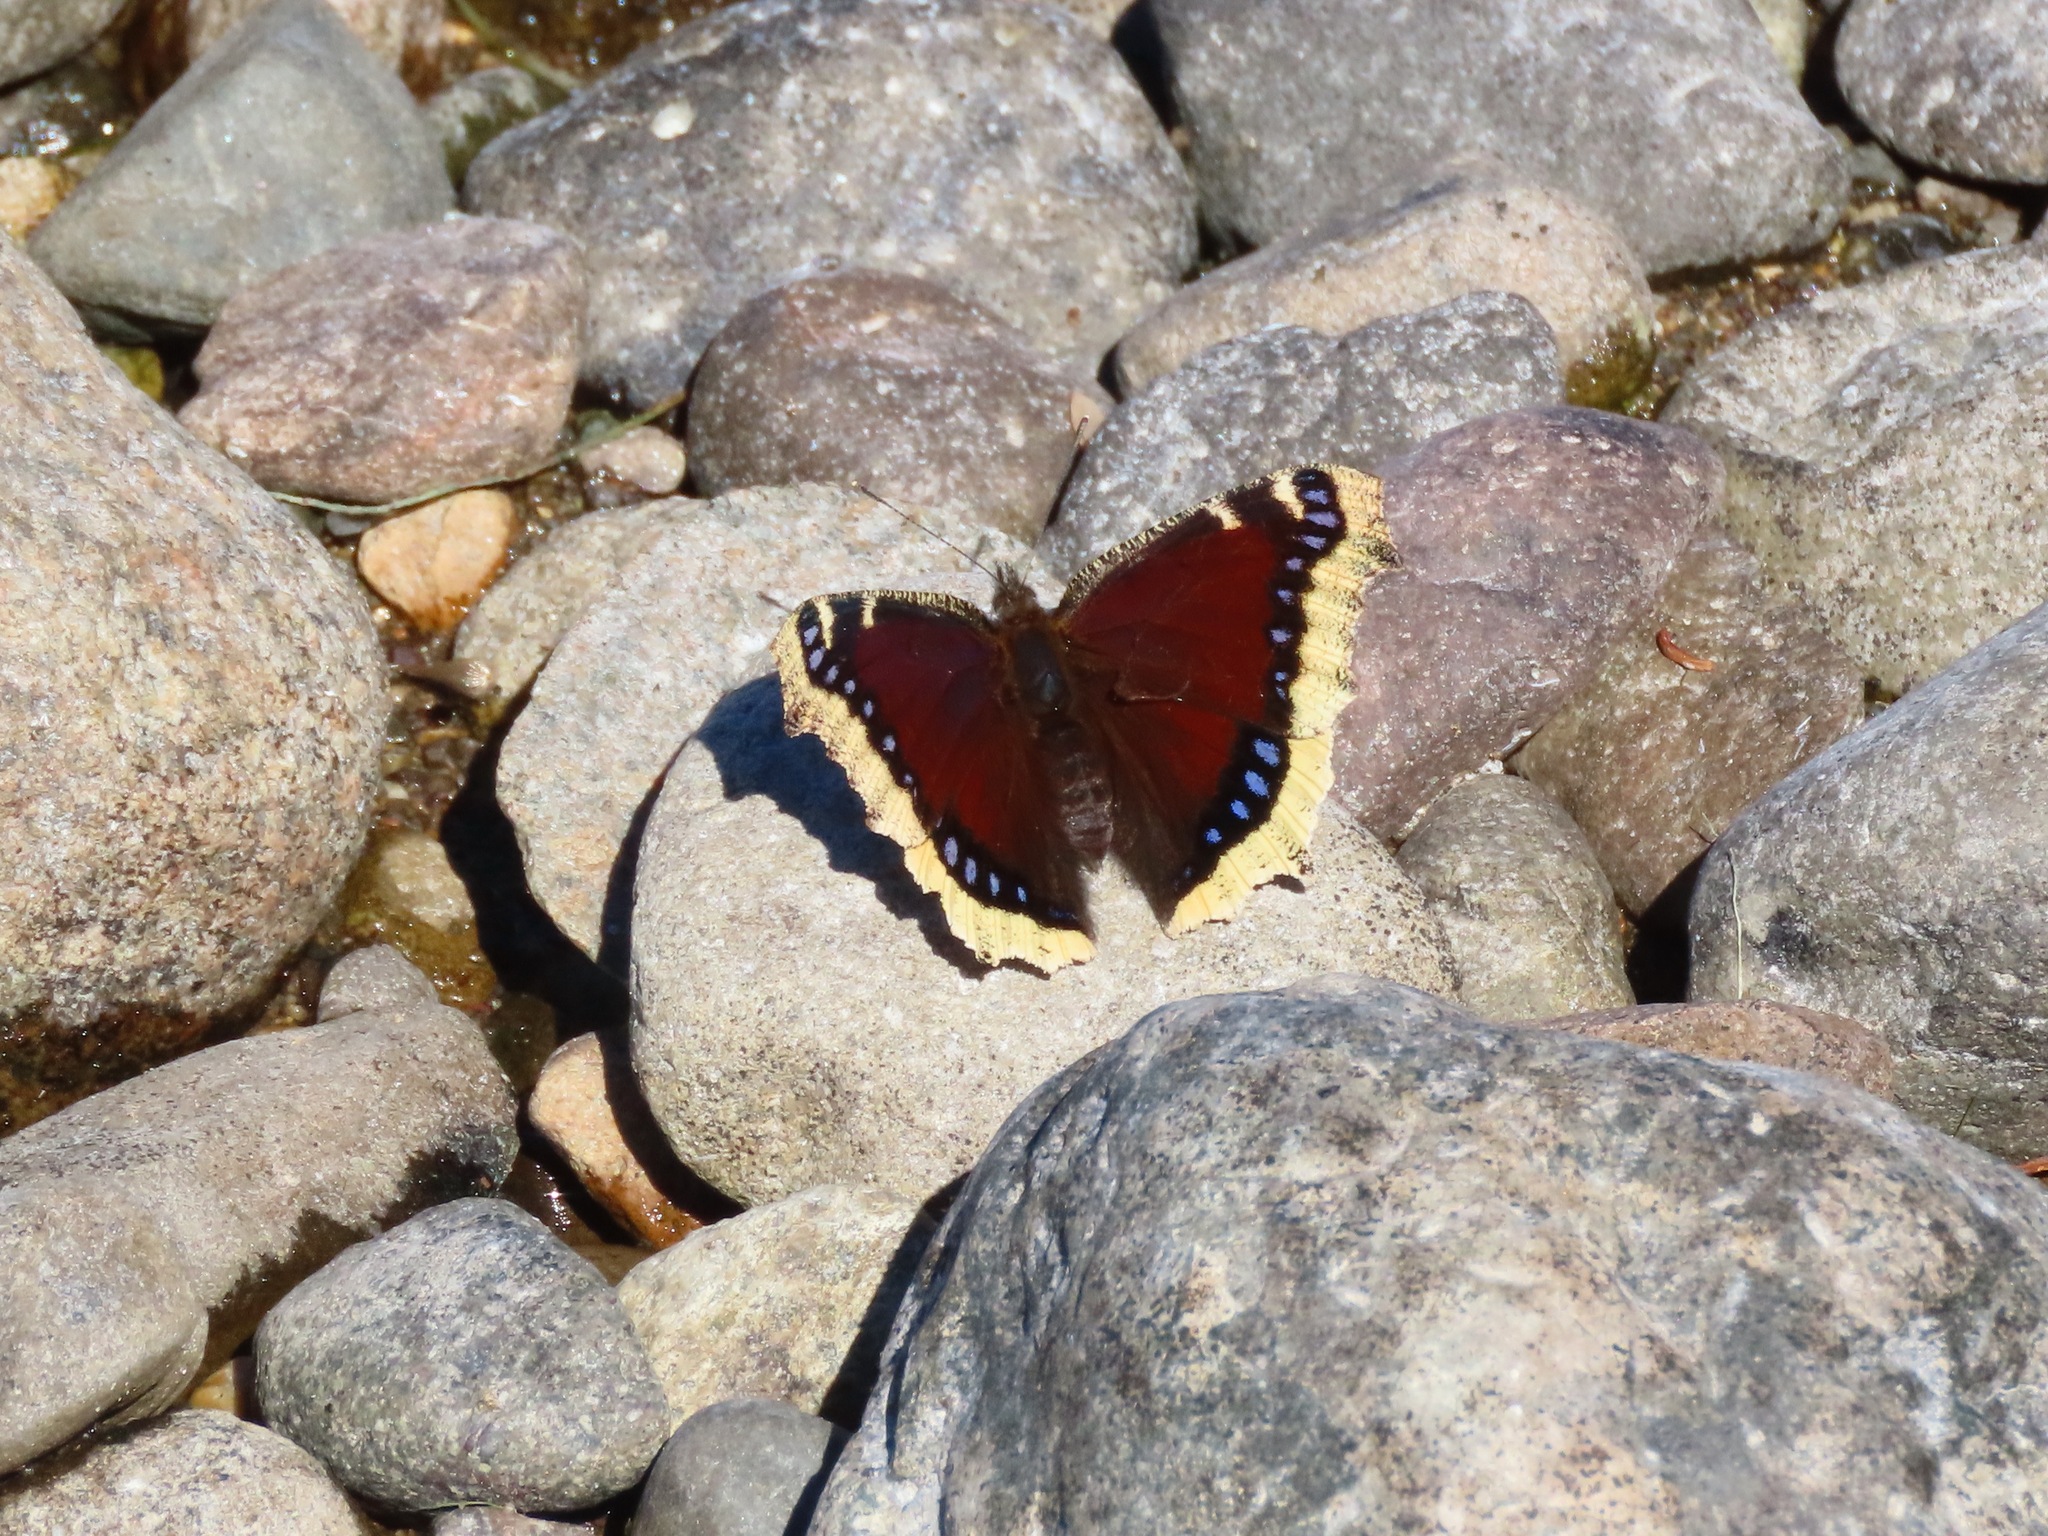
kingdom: Animalia
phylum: Arthropoda
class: Insecta
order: Lepidoptera
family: Nymphalidae
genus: Nymphalis
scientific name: Nymphalis antiopa
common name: Camberwell beauty
